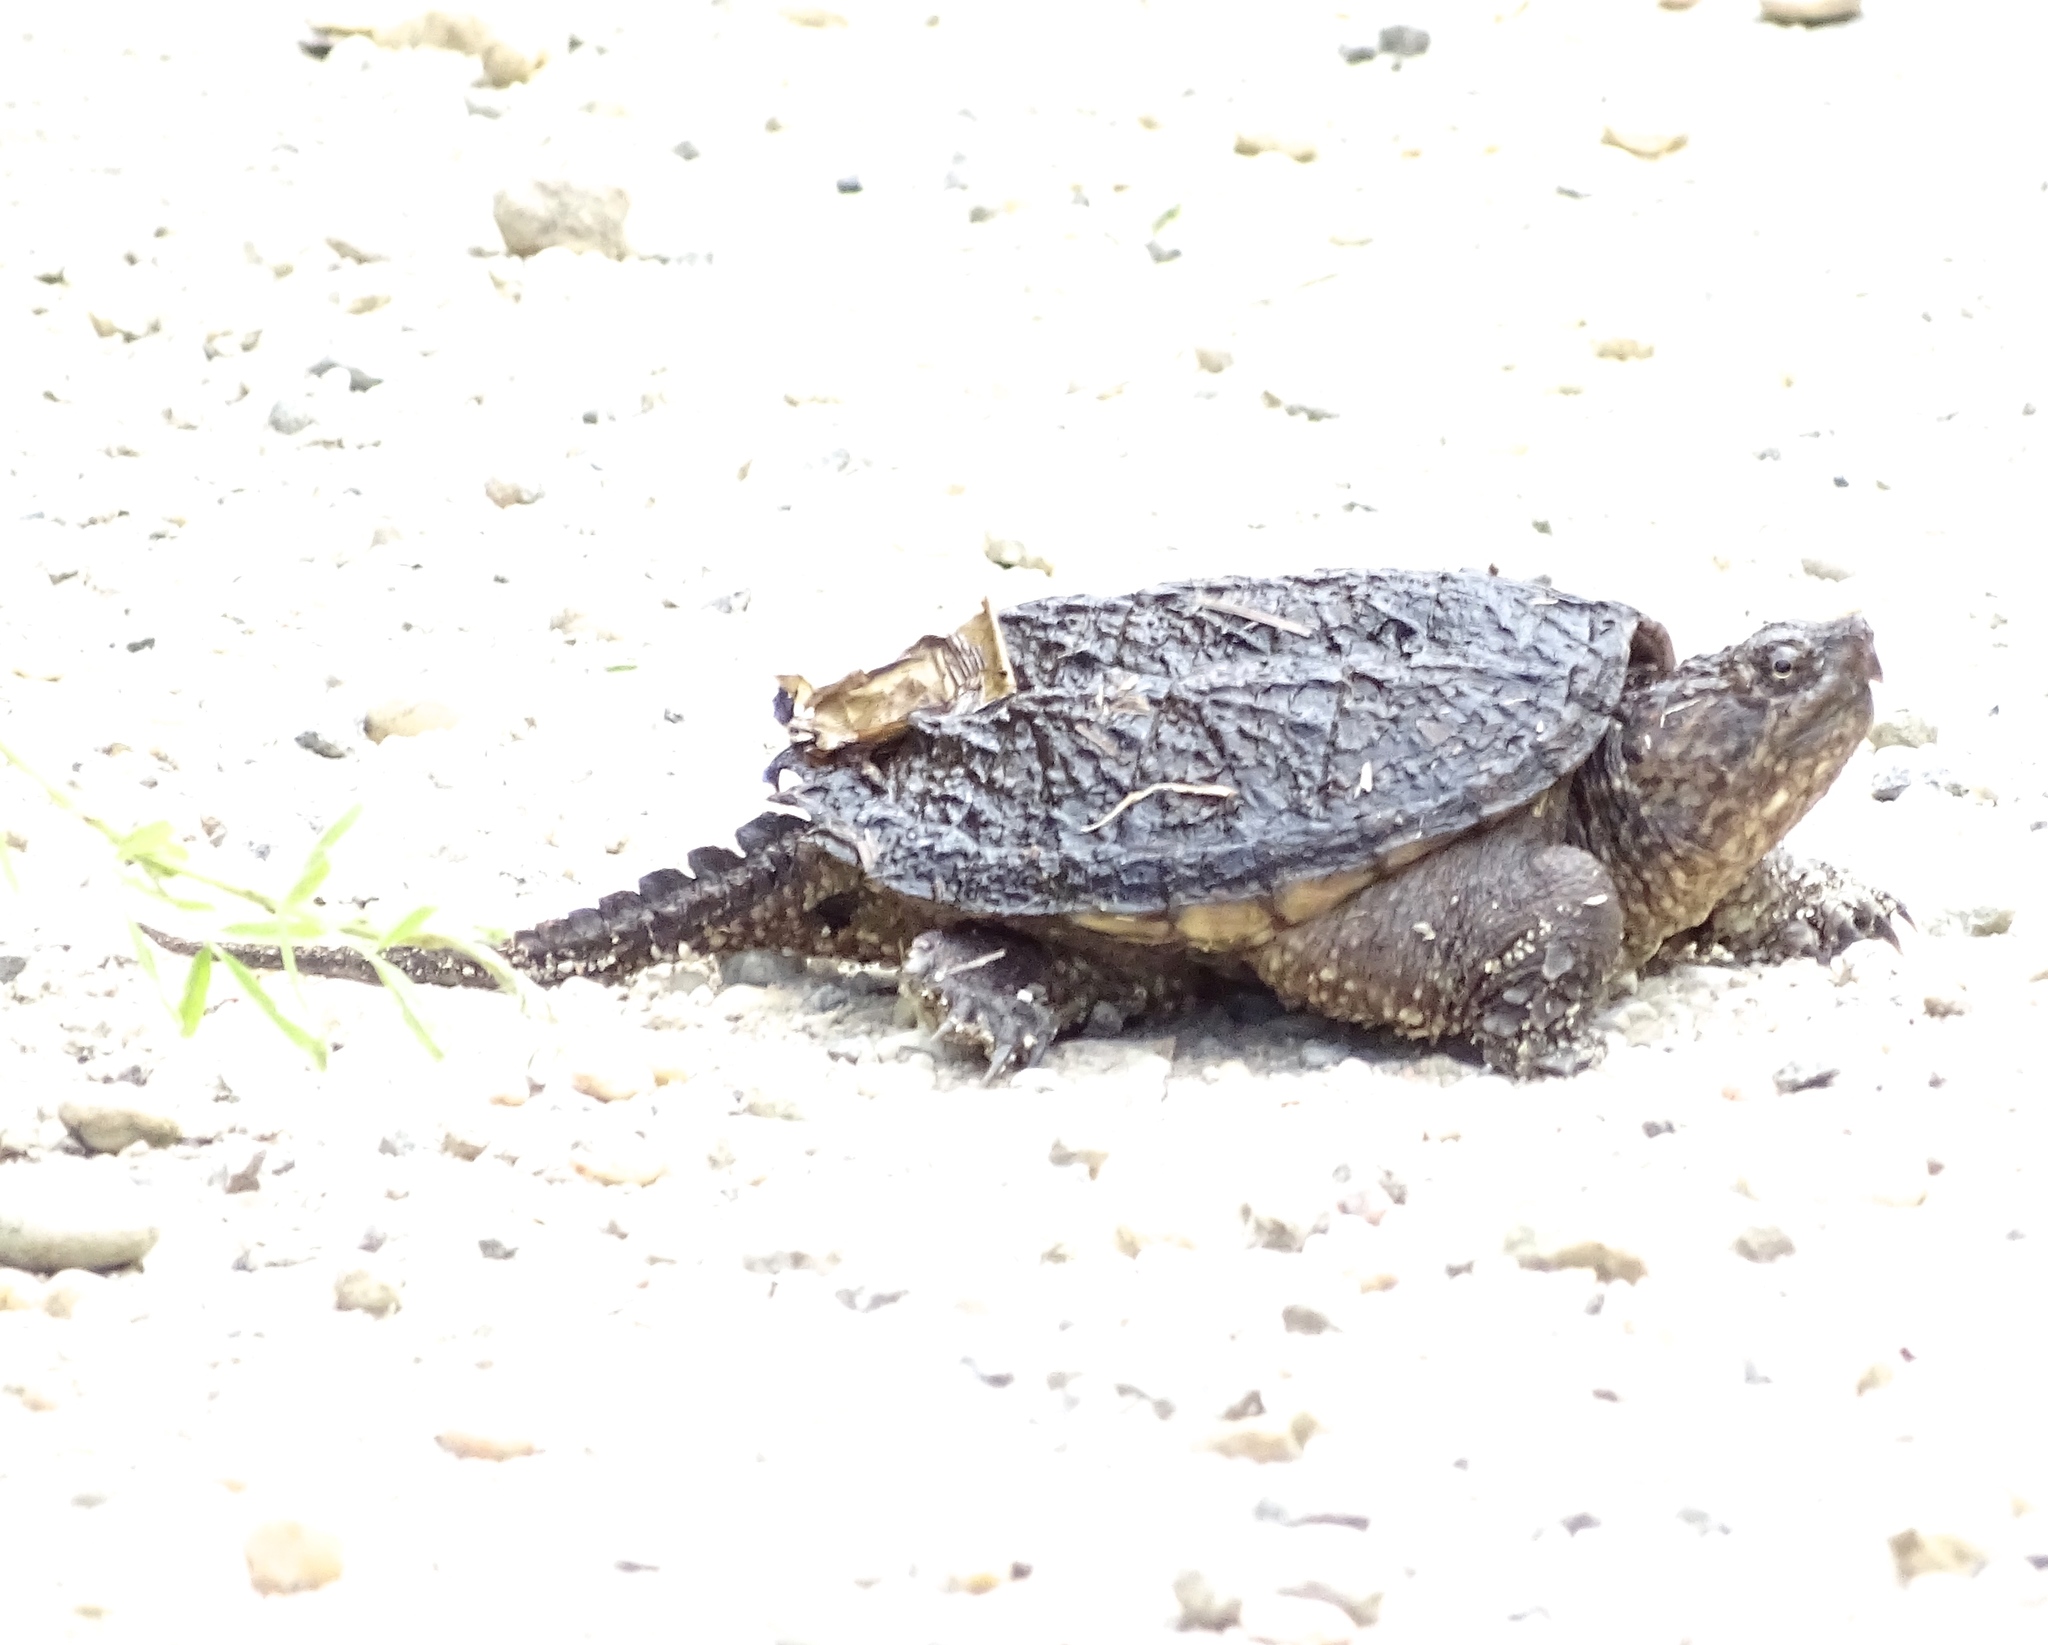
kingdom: Animalia
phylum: Chordata
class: Testudines
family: Chelydridae
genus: Chelydra
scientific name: Chelydra serpentina
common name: Common snapping turtle
